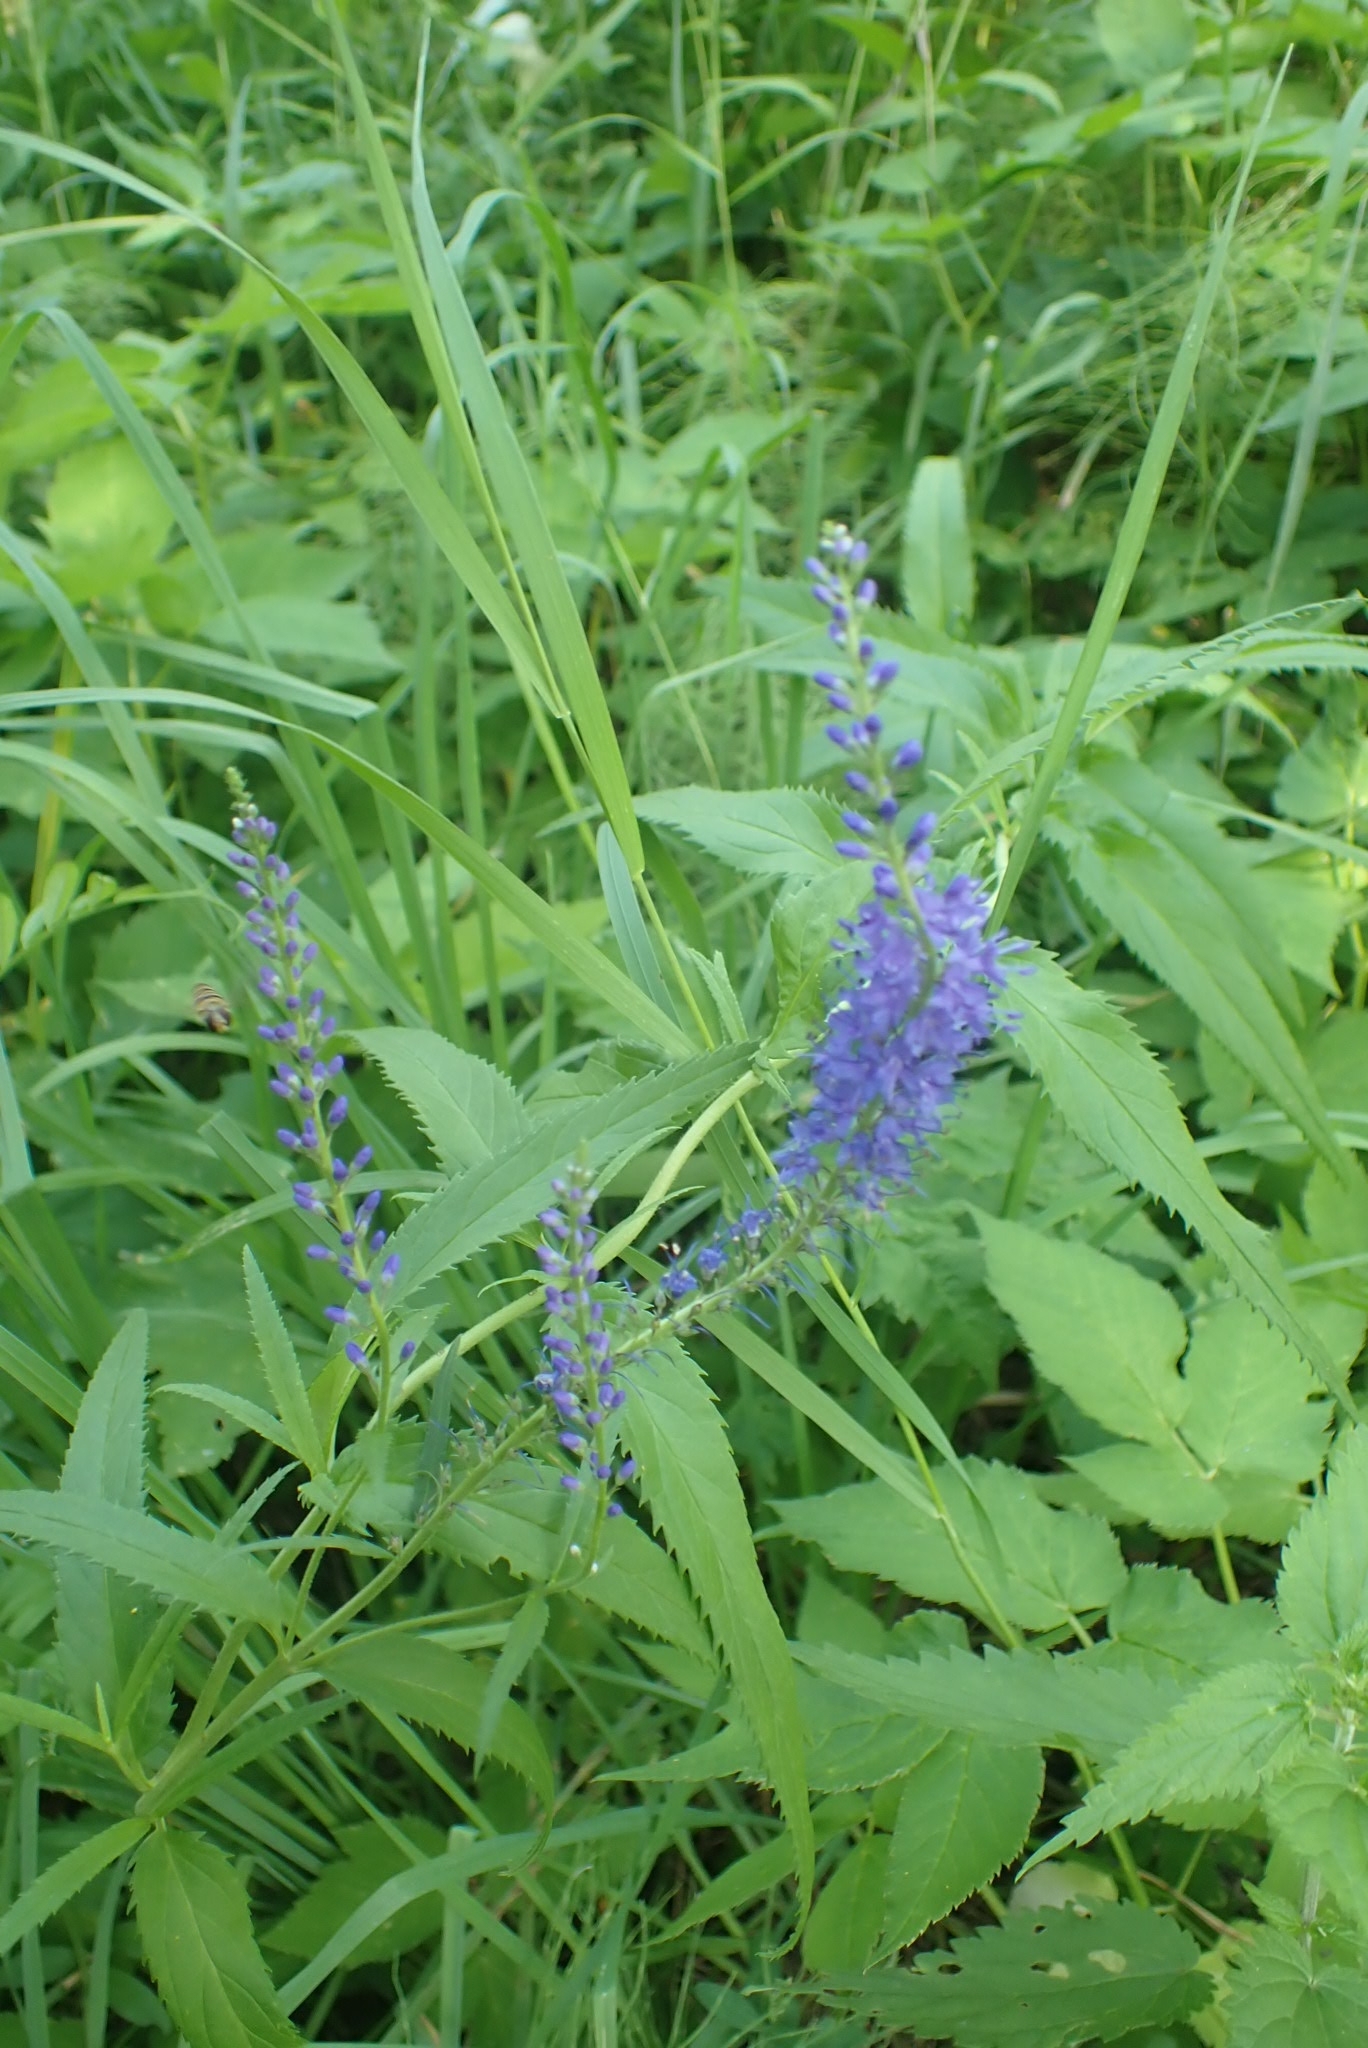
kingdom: Plantae
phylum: Tracheophyta
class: Magnoliopsida
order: Lamiales
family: Plantaginaceae
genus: Veronica
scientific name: Veronica longifolia
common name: Garden speedwell
